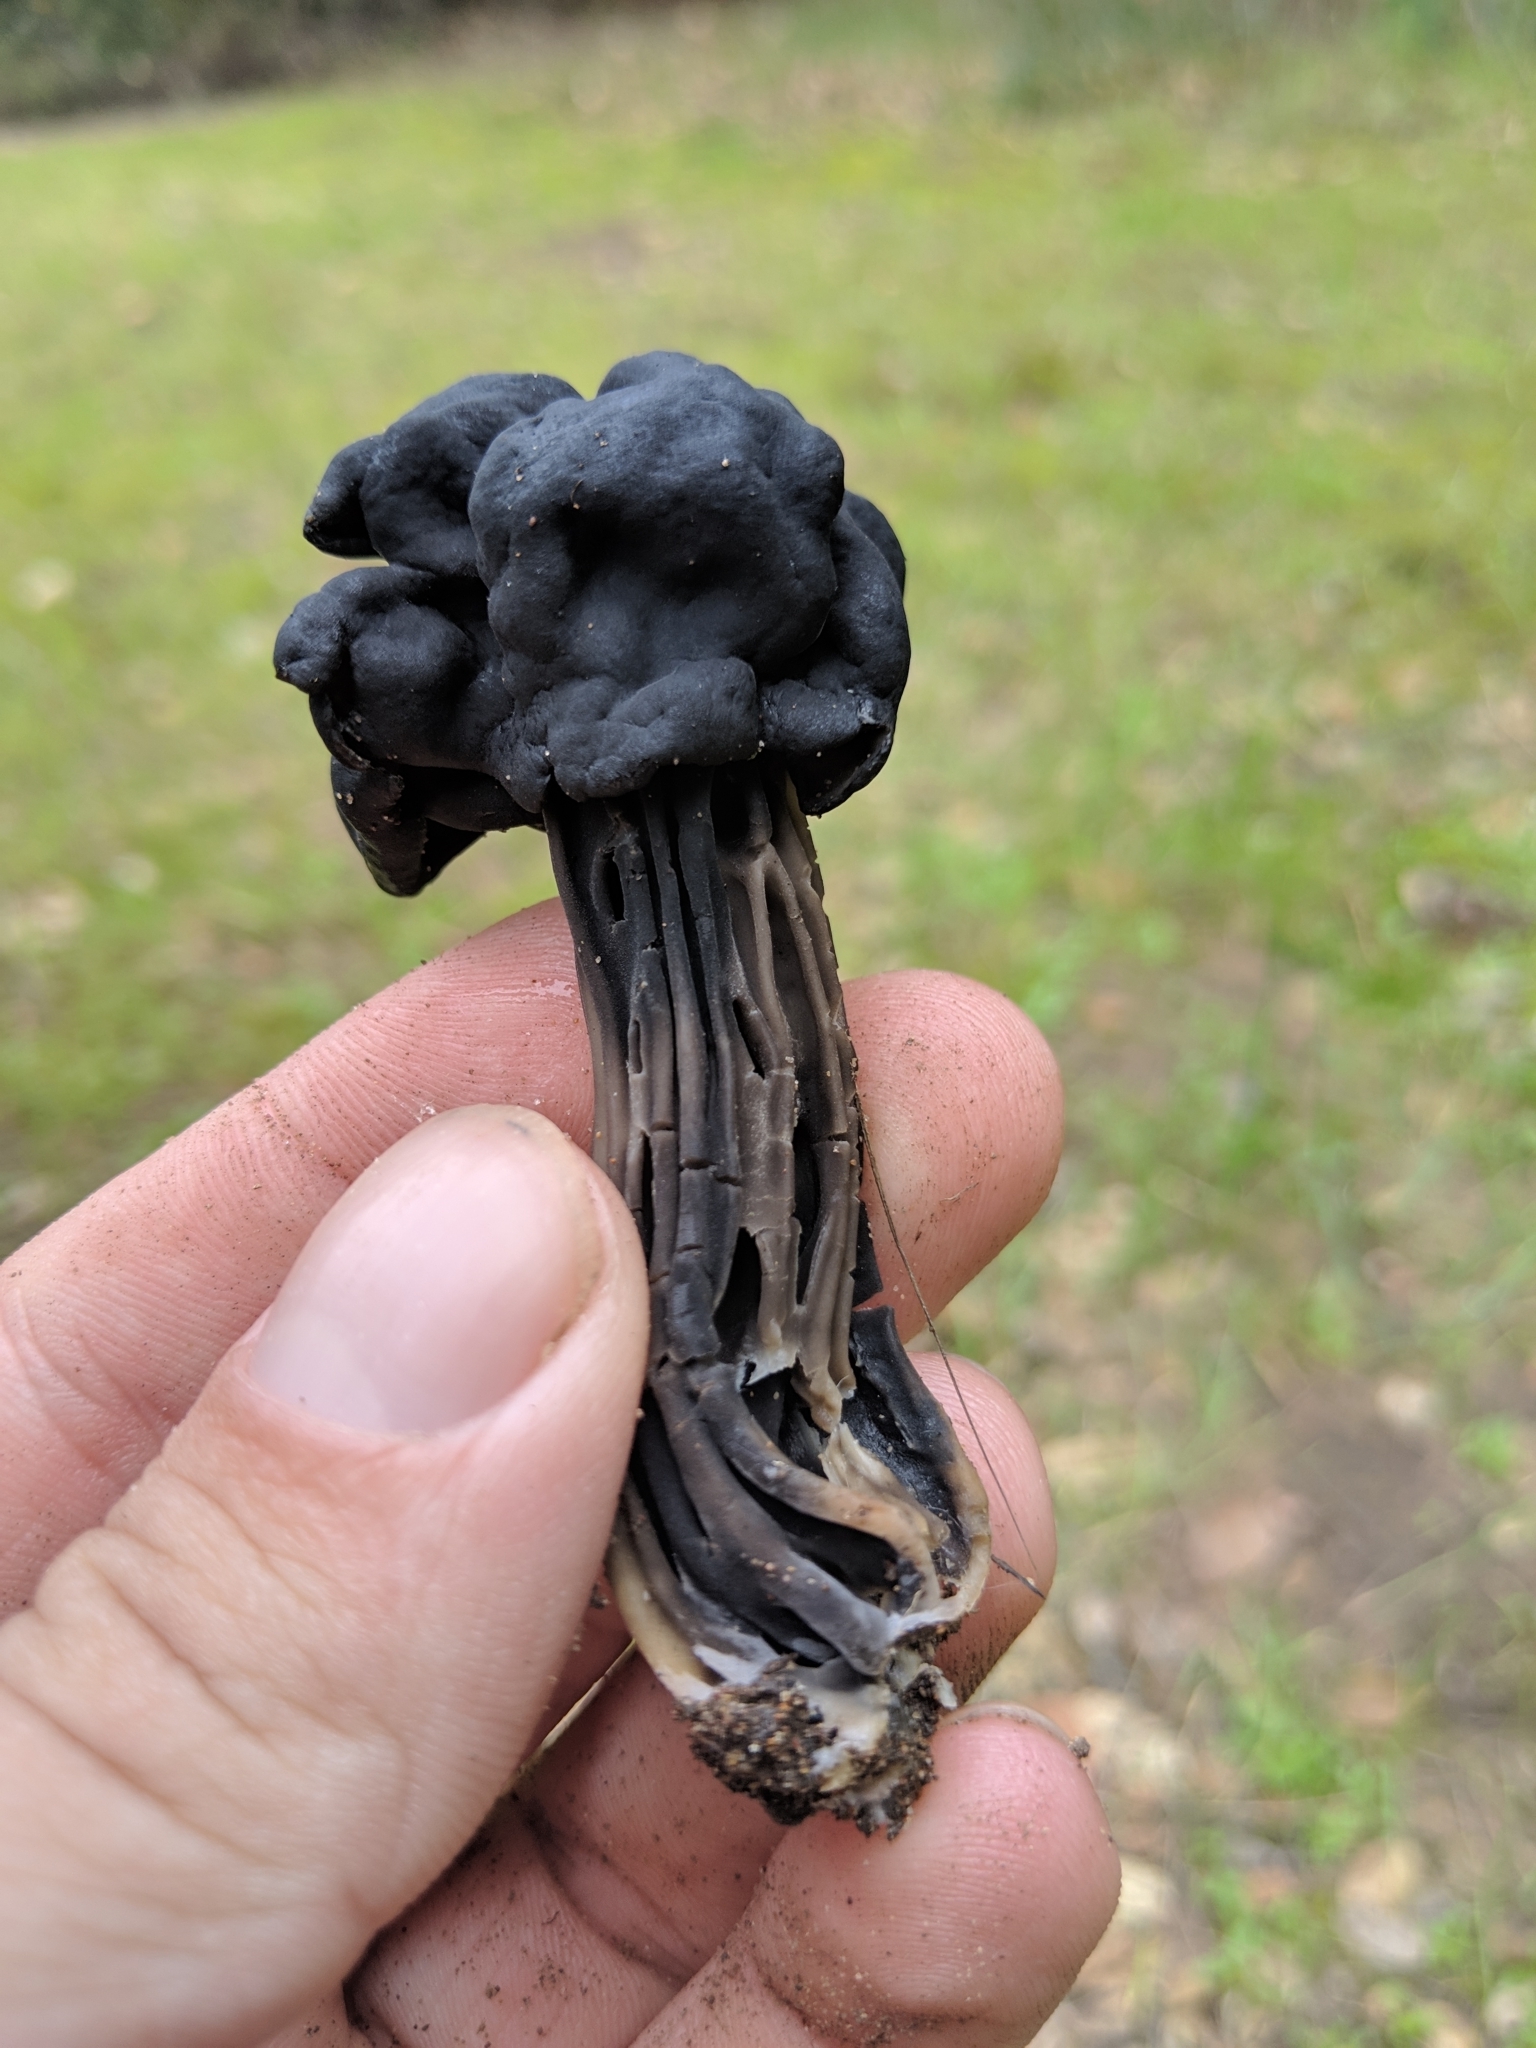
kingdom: Fungi
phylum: Ascomycota
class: Pezizomycetes
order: Pezizales
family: Helvellaceae
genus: Helvella
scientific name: Helvella dryophila
